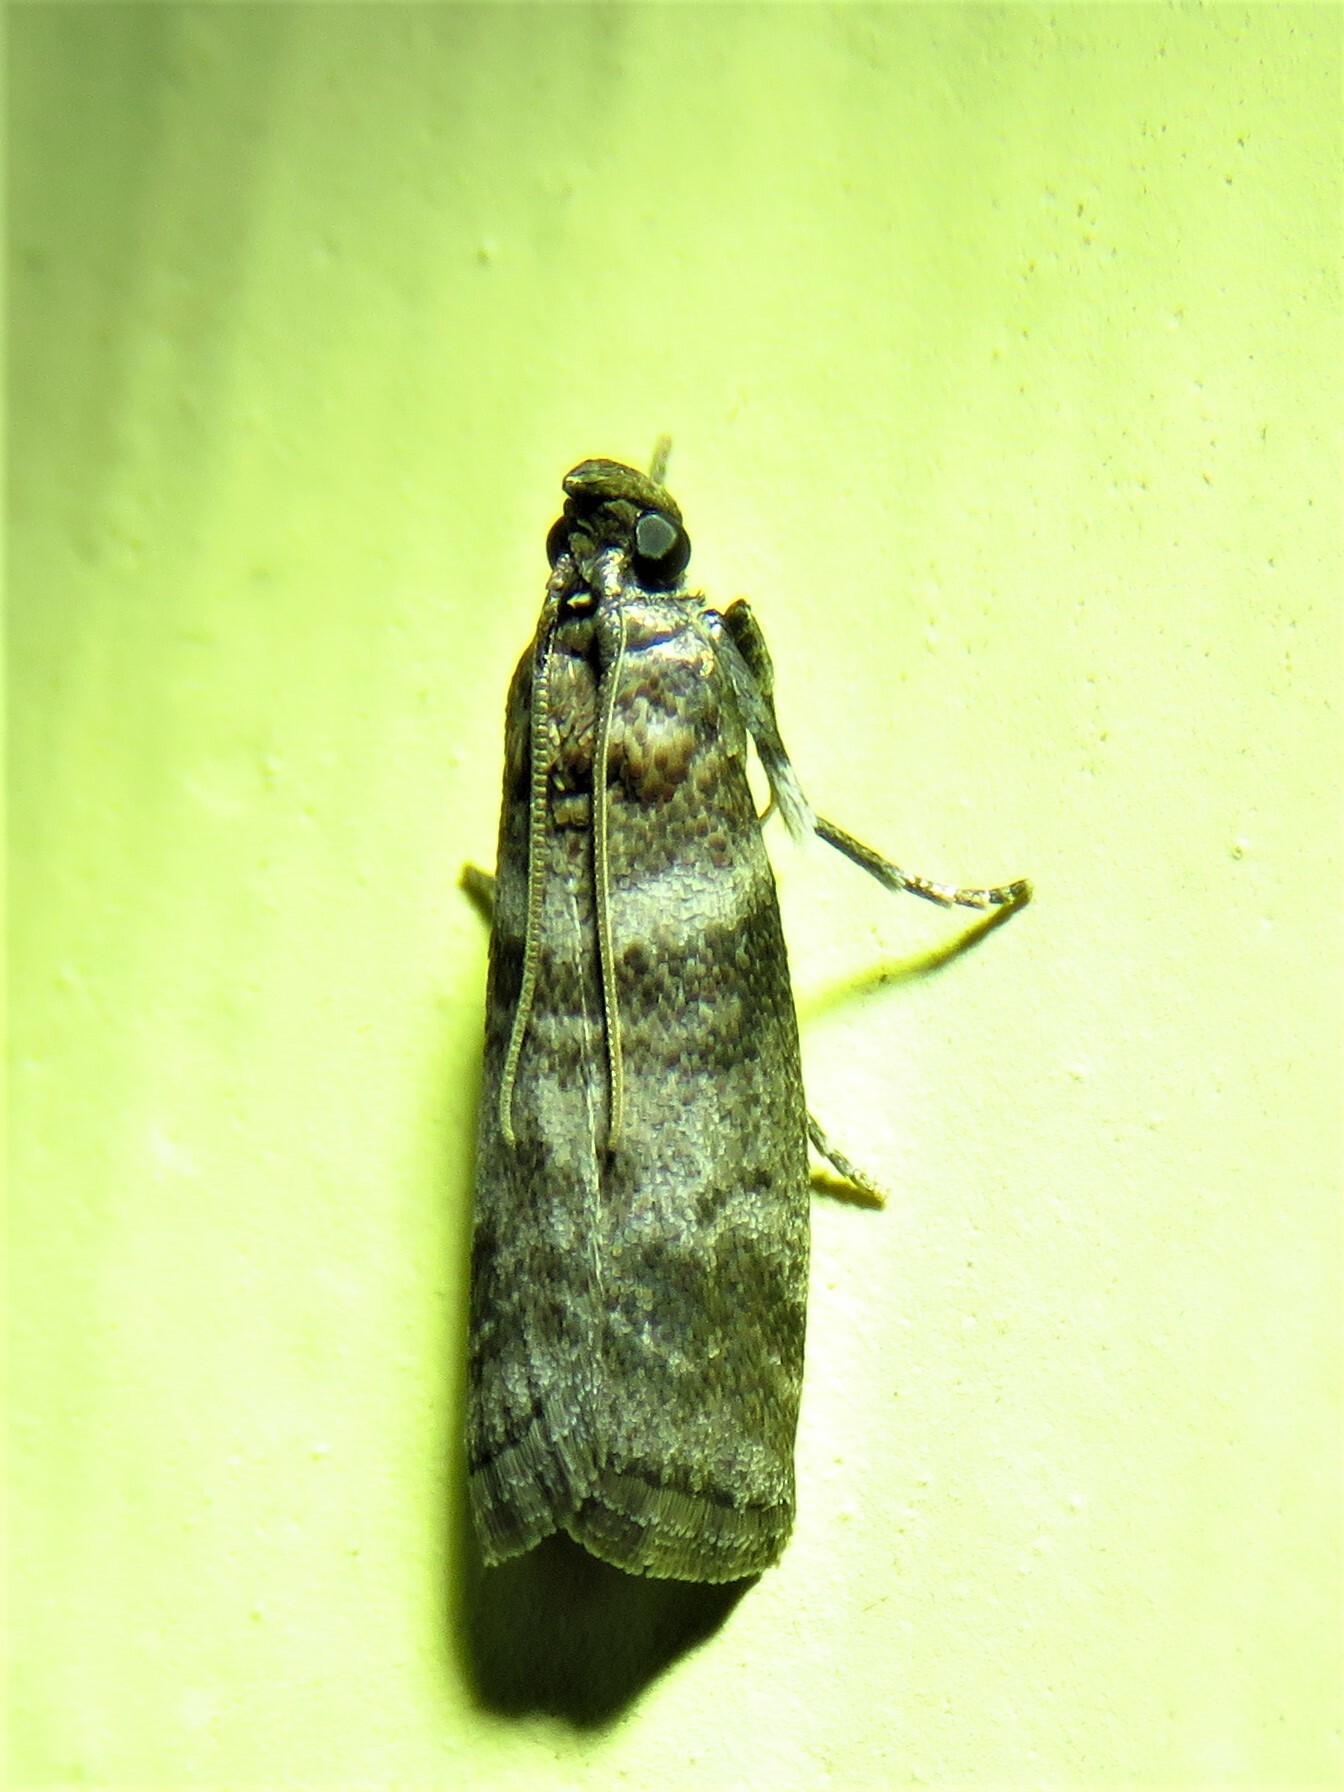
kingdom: Animalia
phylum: Arthropoda
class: Insecta
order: Lepidoptera
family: Pyralidae
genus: Sciota
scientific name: Sciota uvinella
